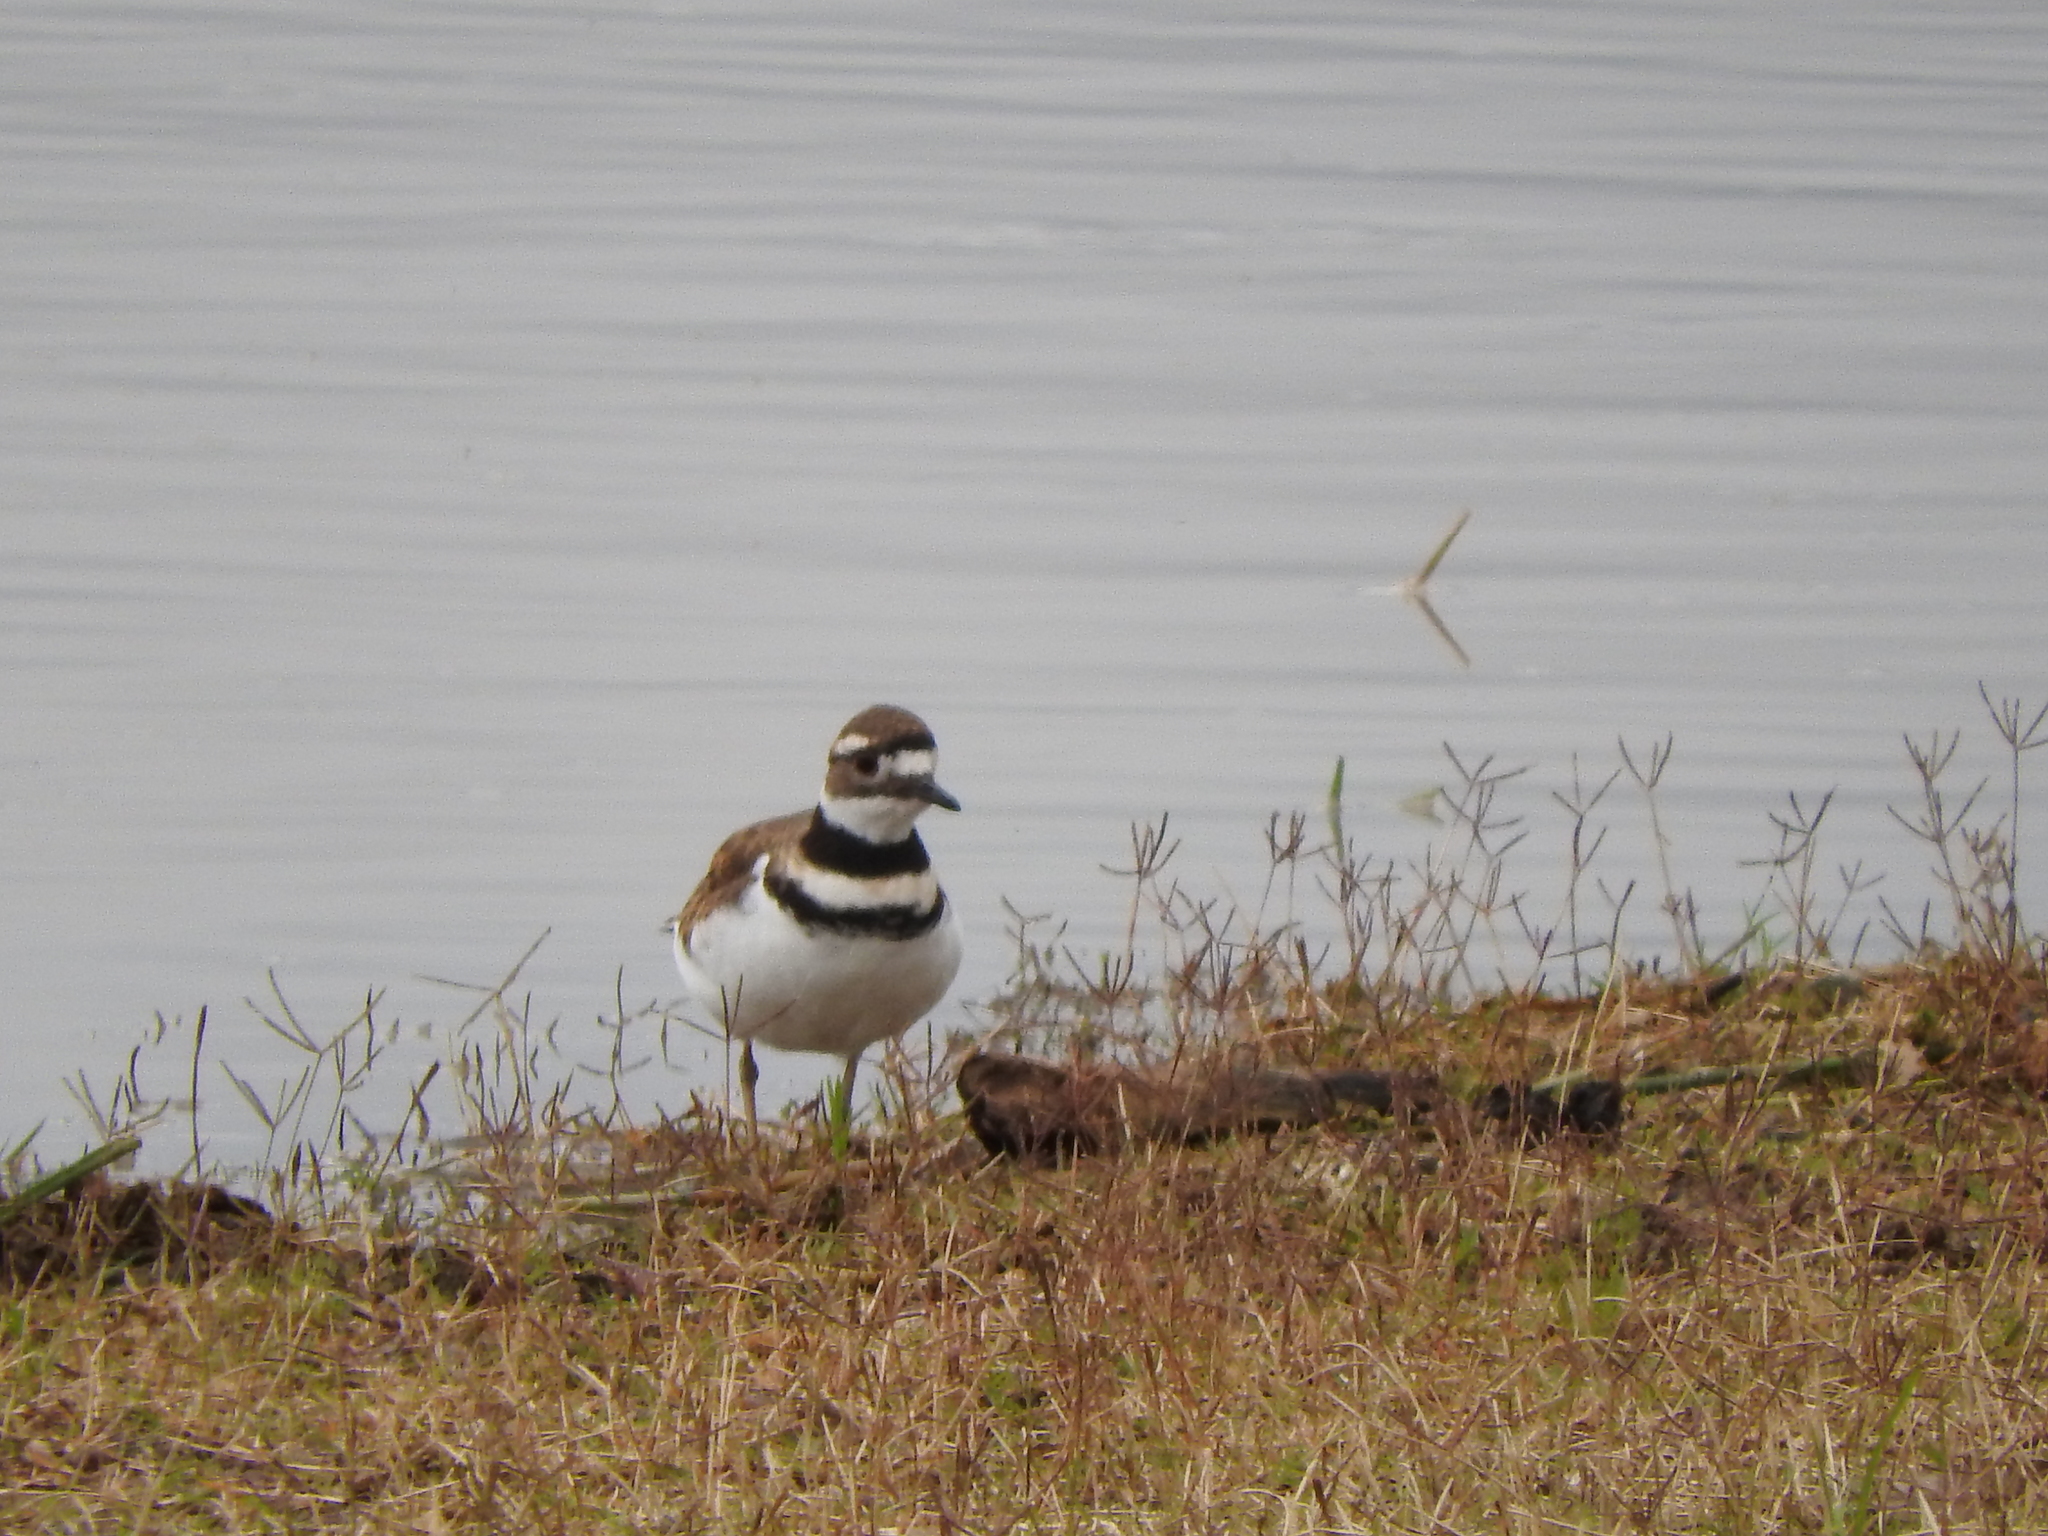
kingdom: Animalia
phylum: Chordata
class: Aves
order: Charadriiformes
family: Charadriidae
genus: Charadrius
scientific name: Charadrius vociferus
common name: Killdeer
